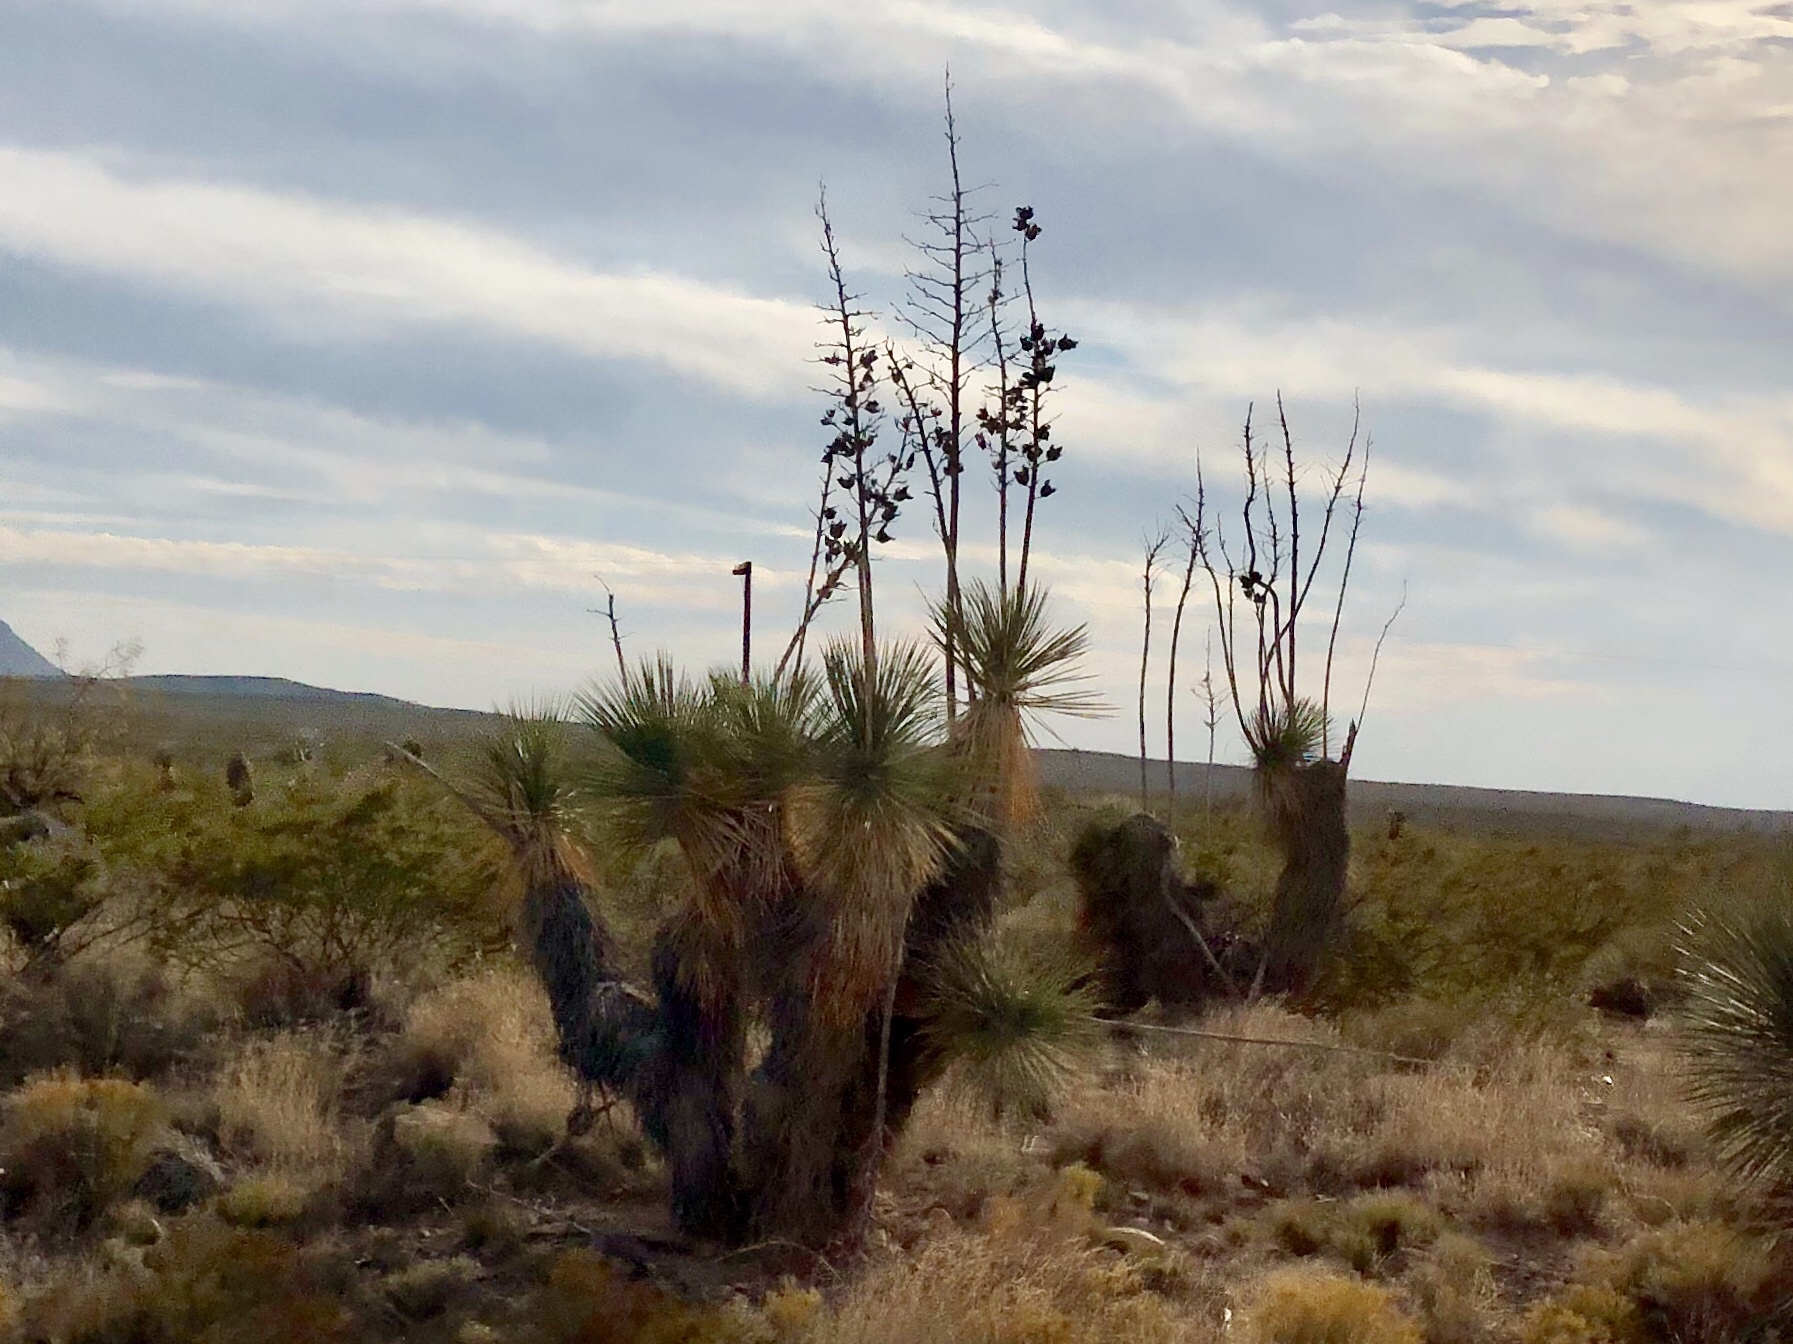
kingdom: Plantae
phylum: Tracheophyta
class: Liliopsida
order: Asparagales
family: Asparagaceae
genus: Yucca
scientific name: Yucca elata
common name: Palmella
